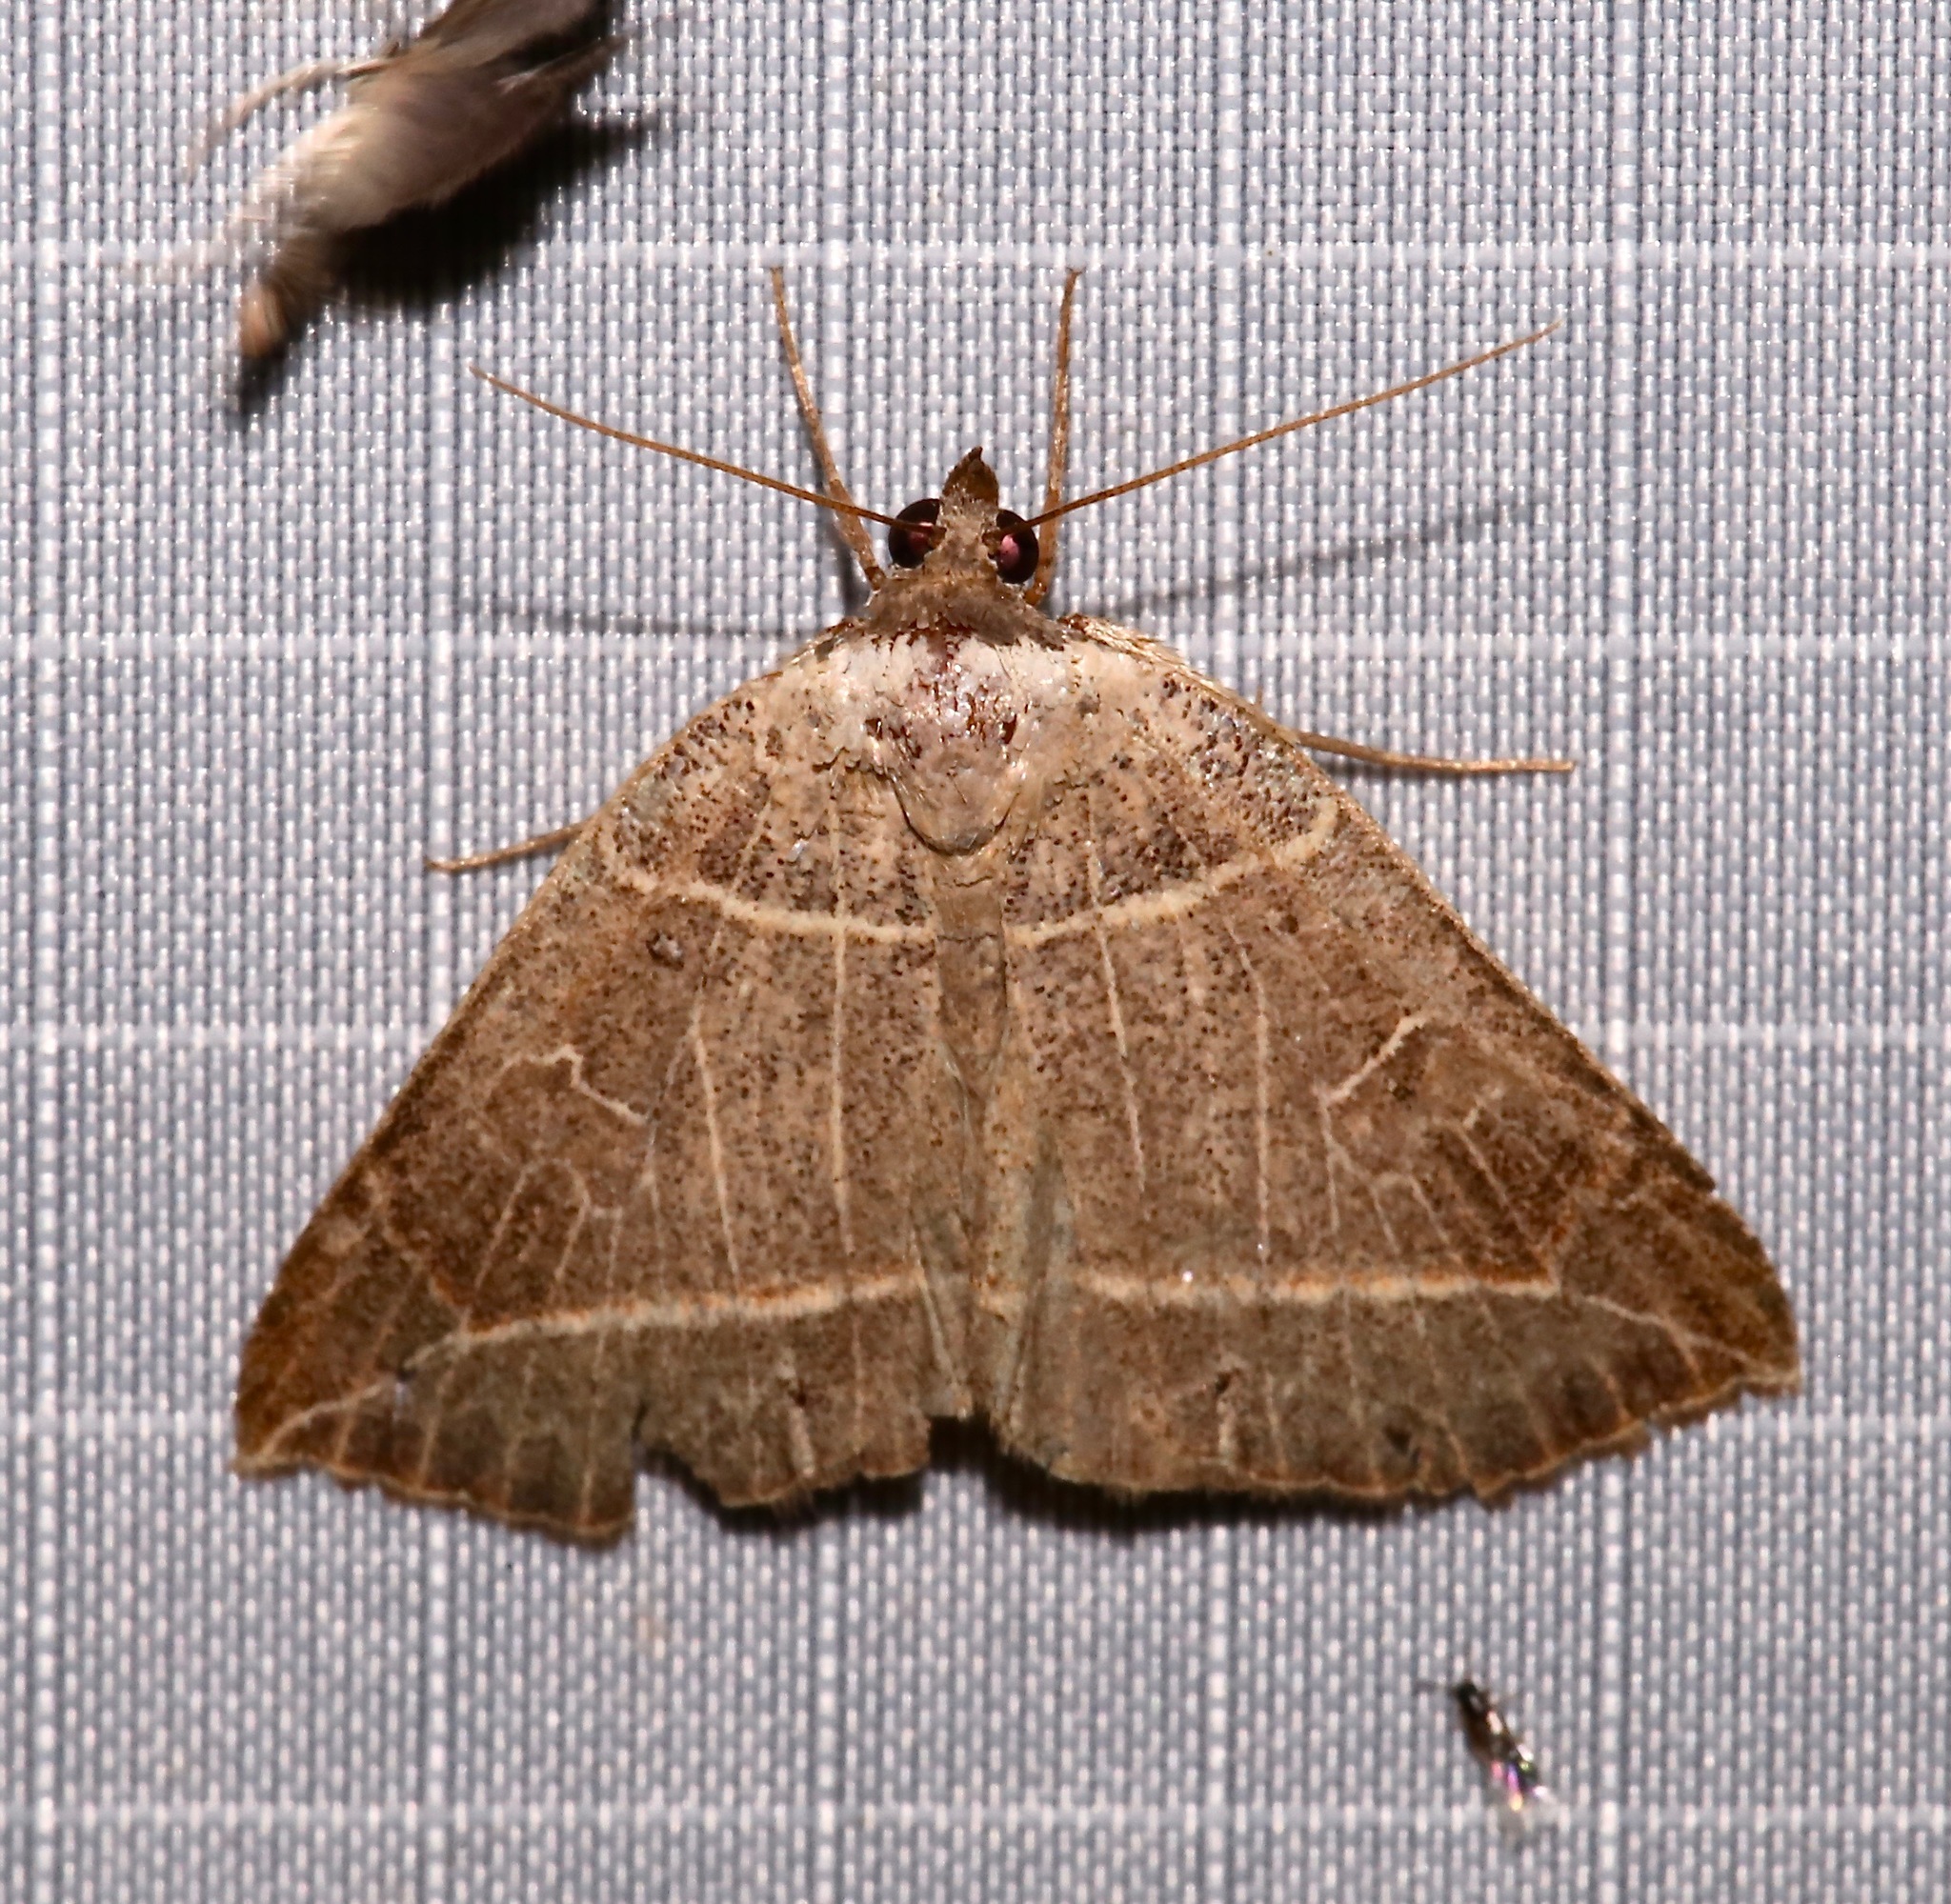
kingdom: Animalia
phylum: Arthropoda
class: Insecta
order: Lepidoptera
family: Erebidae
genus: Isogona
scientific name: Isogona tenuis
